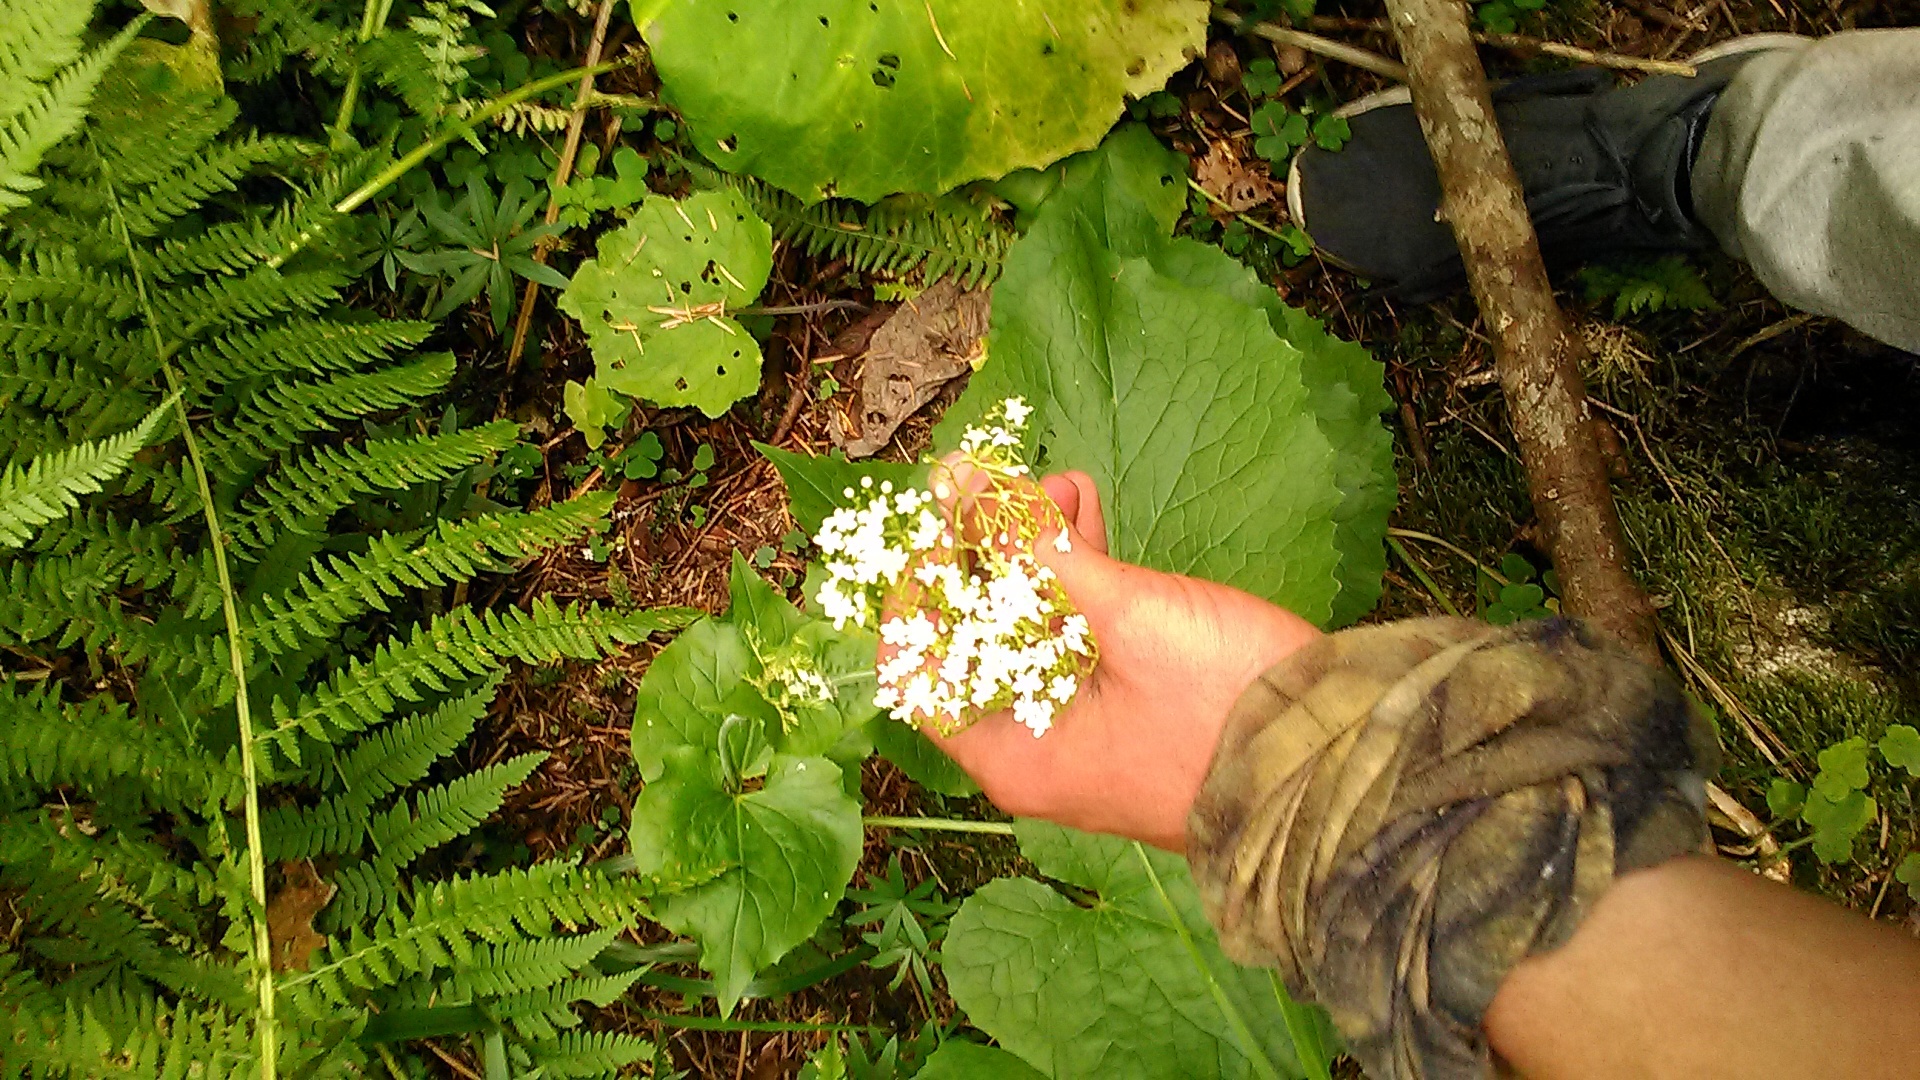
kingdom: Plantae
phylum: Tracheophyta
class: Magnoliopsida
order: Dipsacales
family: Caprifoliaceae
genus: Valeriana
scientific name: Valeriana alliariifolia
